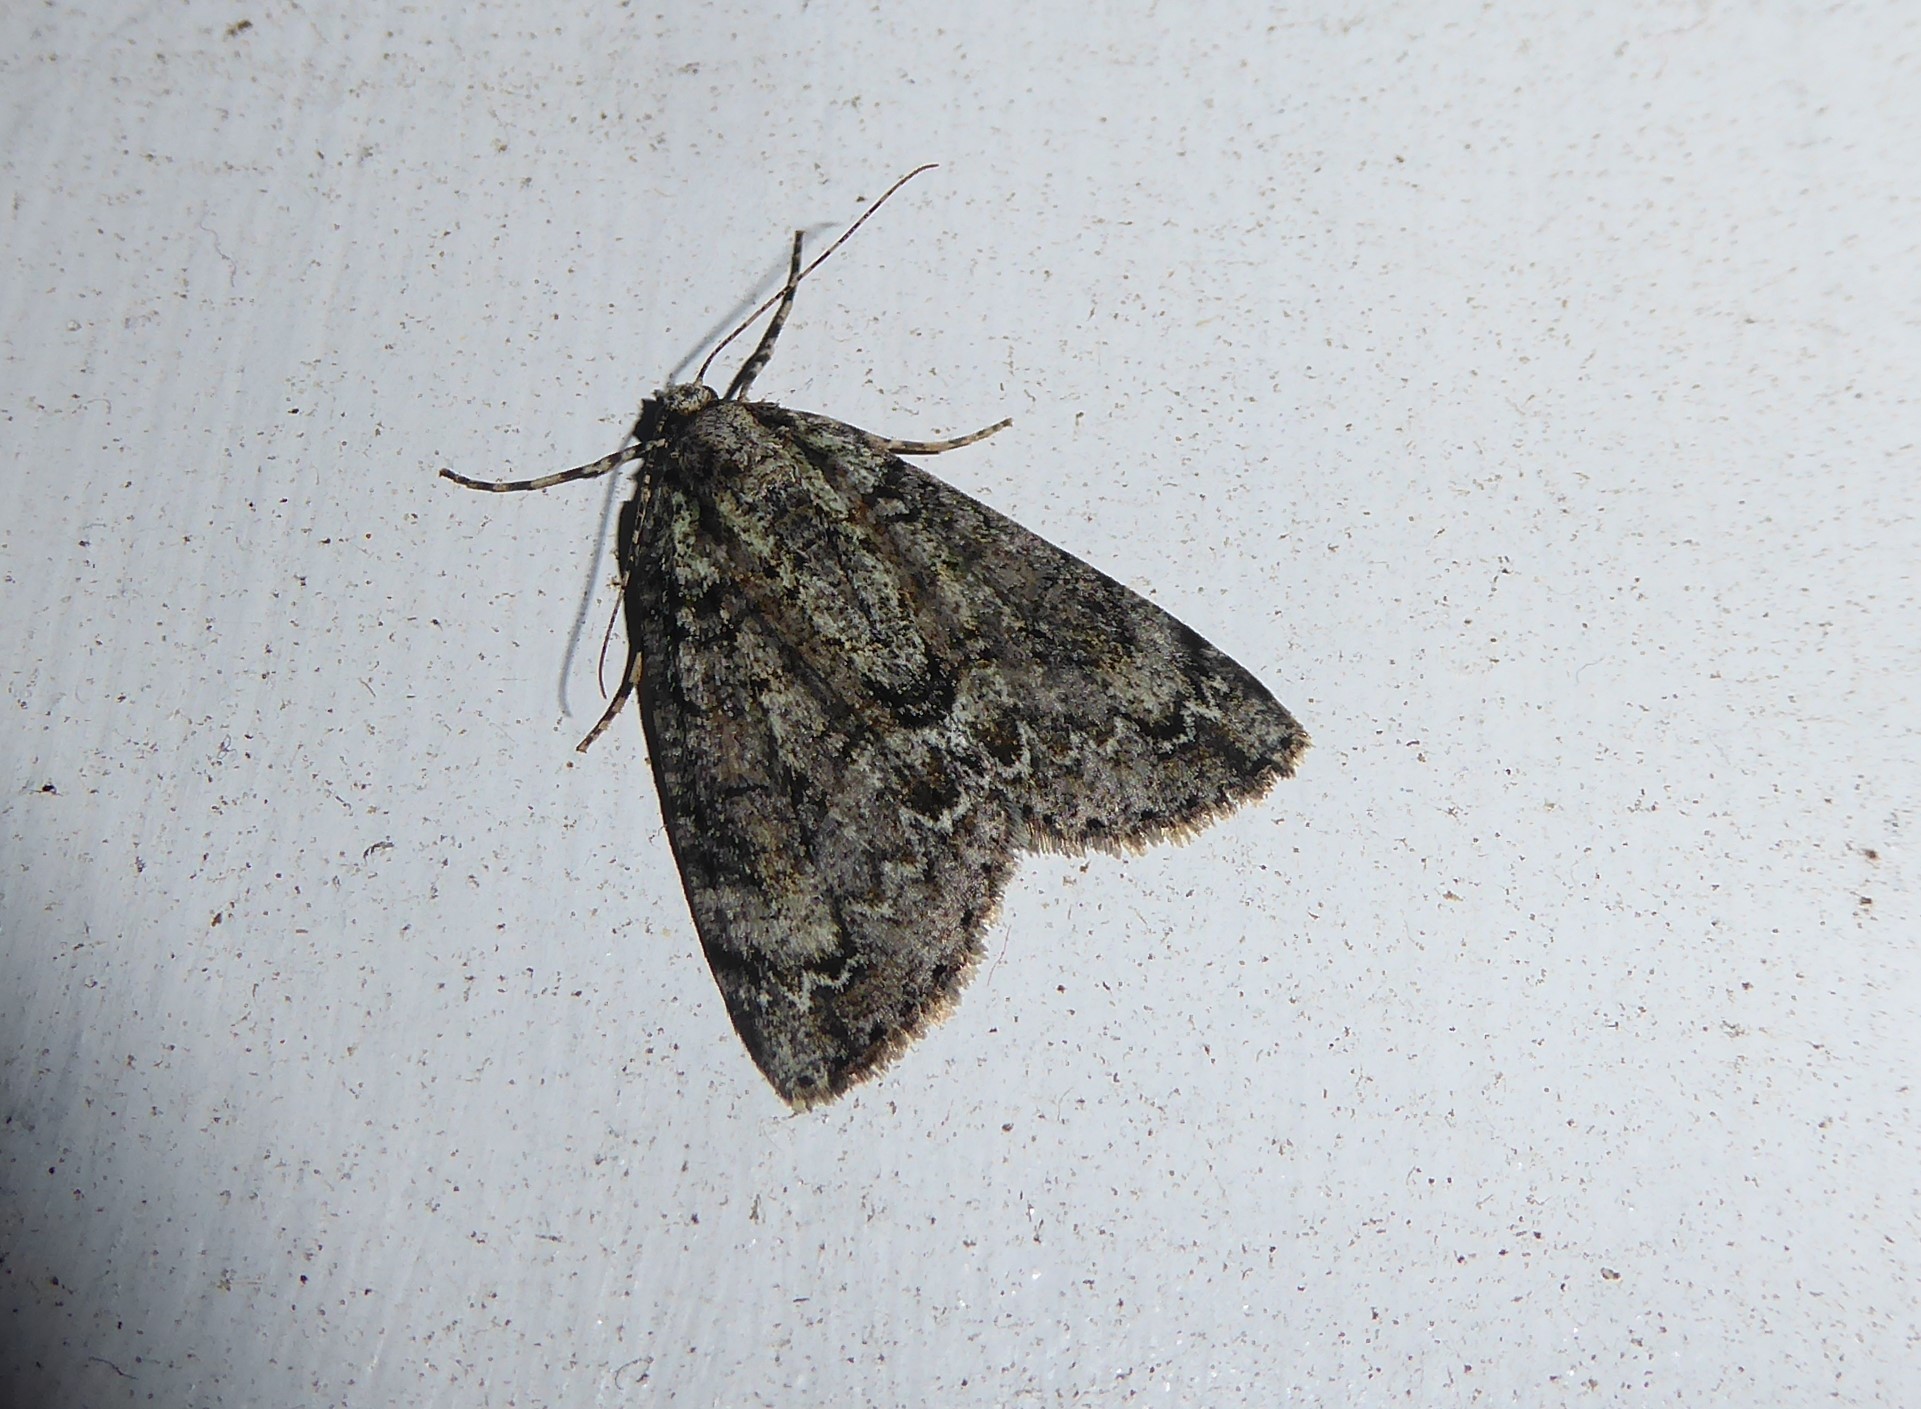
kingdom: Animalia
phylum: Arthropoda
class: Insecta
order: Lepidoptera
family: Geometridae
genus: Pseudocoremia
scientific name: Pseudocoremia suavis
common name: Common forest looper
